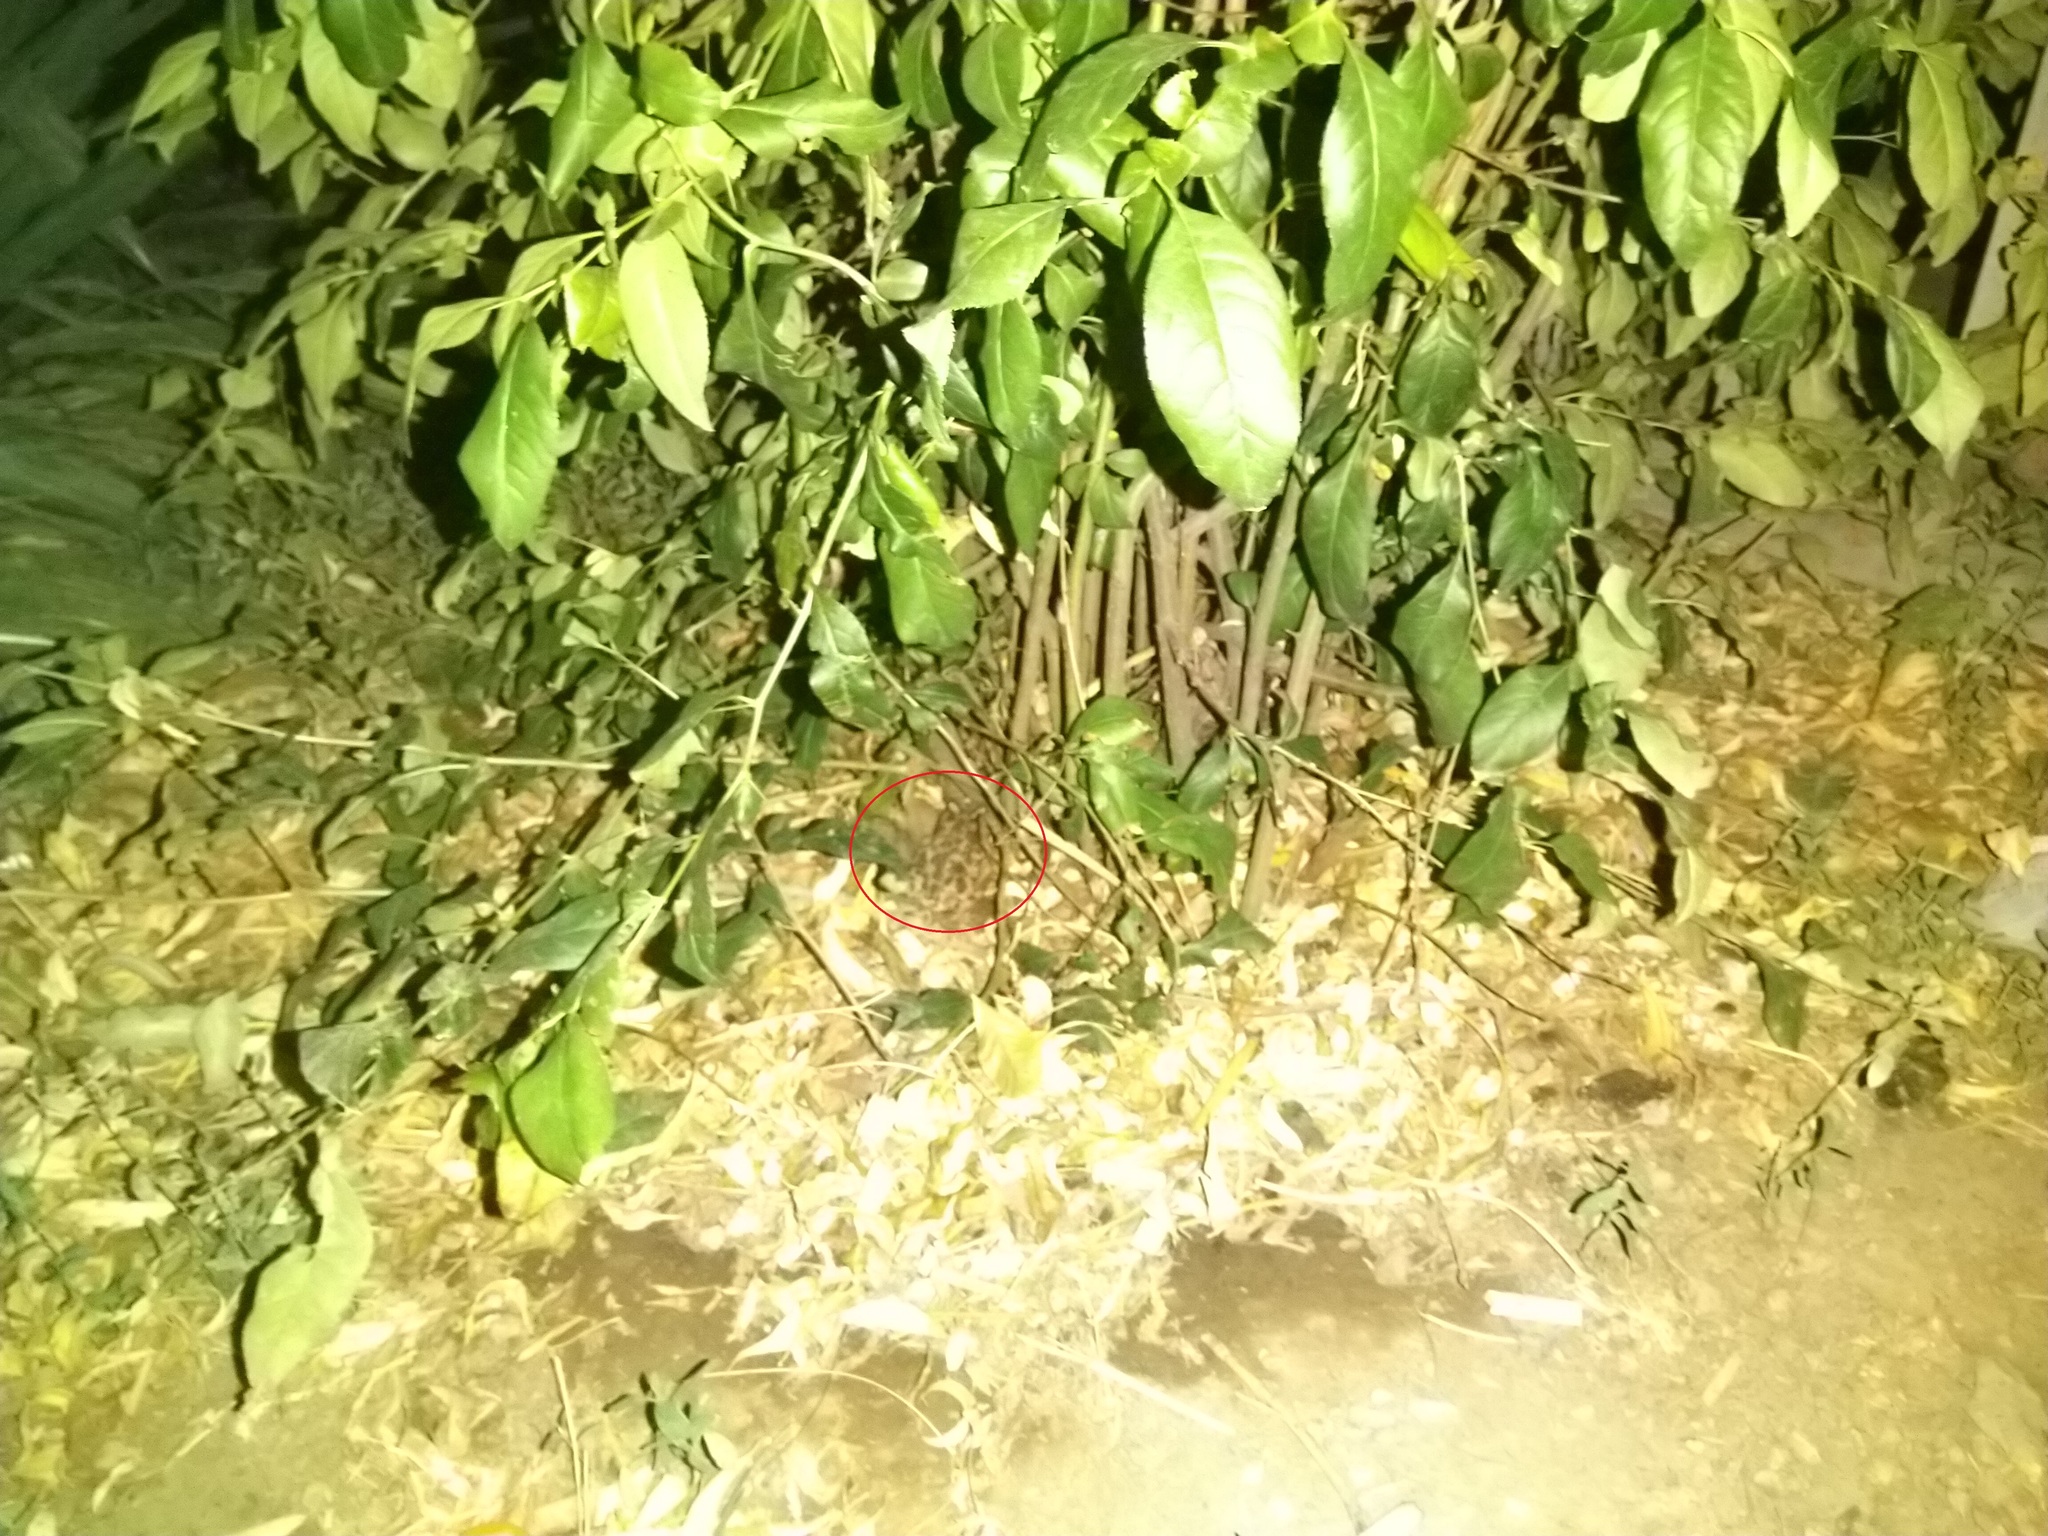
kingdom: Animalia
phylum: Chordata
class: Amphibia
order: Anura
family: Bufonidae
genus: Bufotes
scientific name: Bufotes viridis
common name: European green toad
